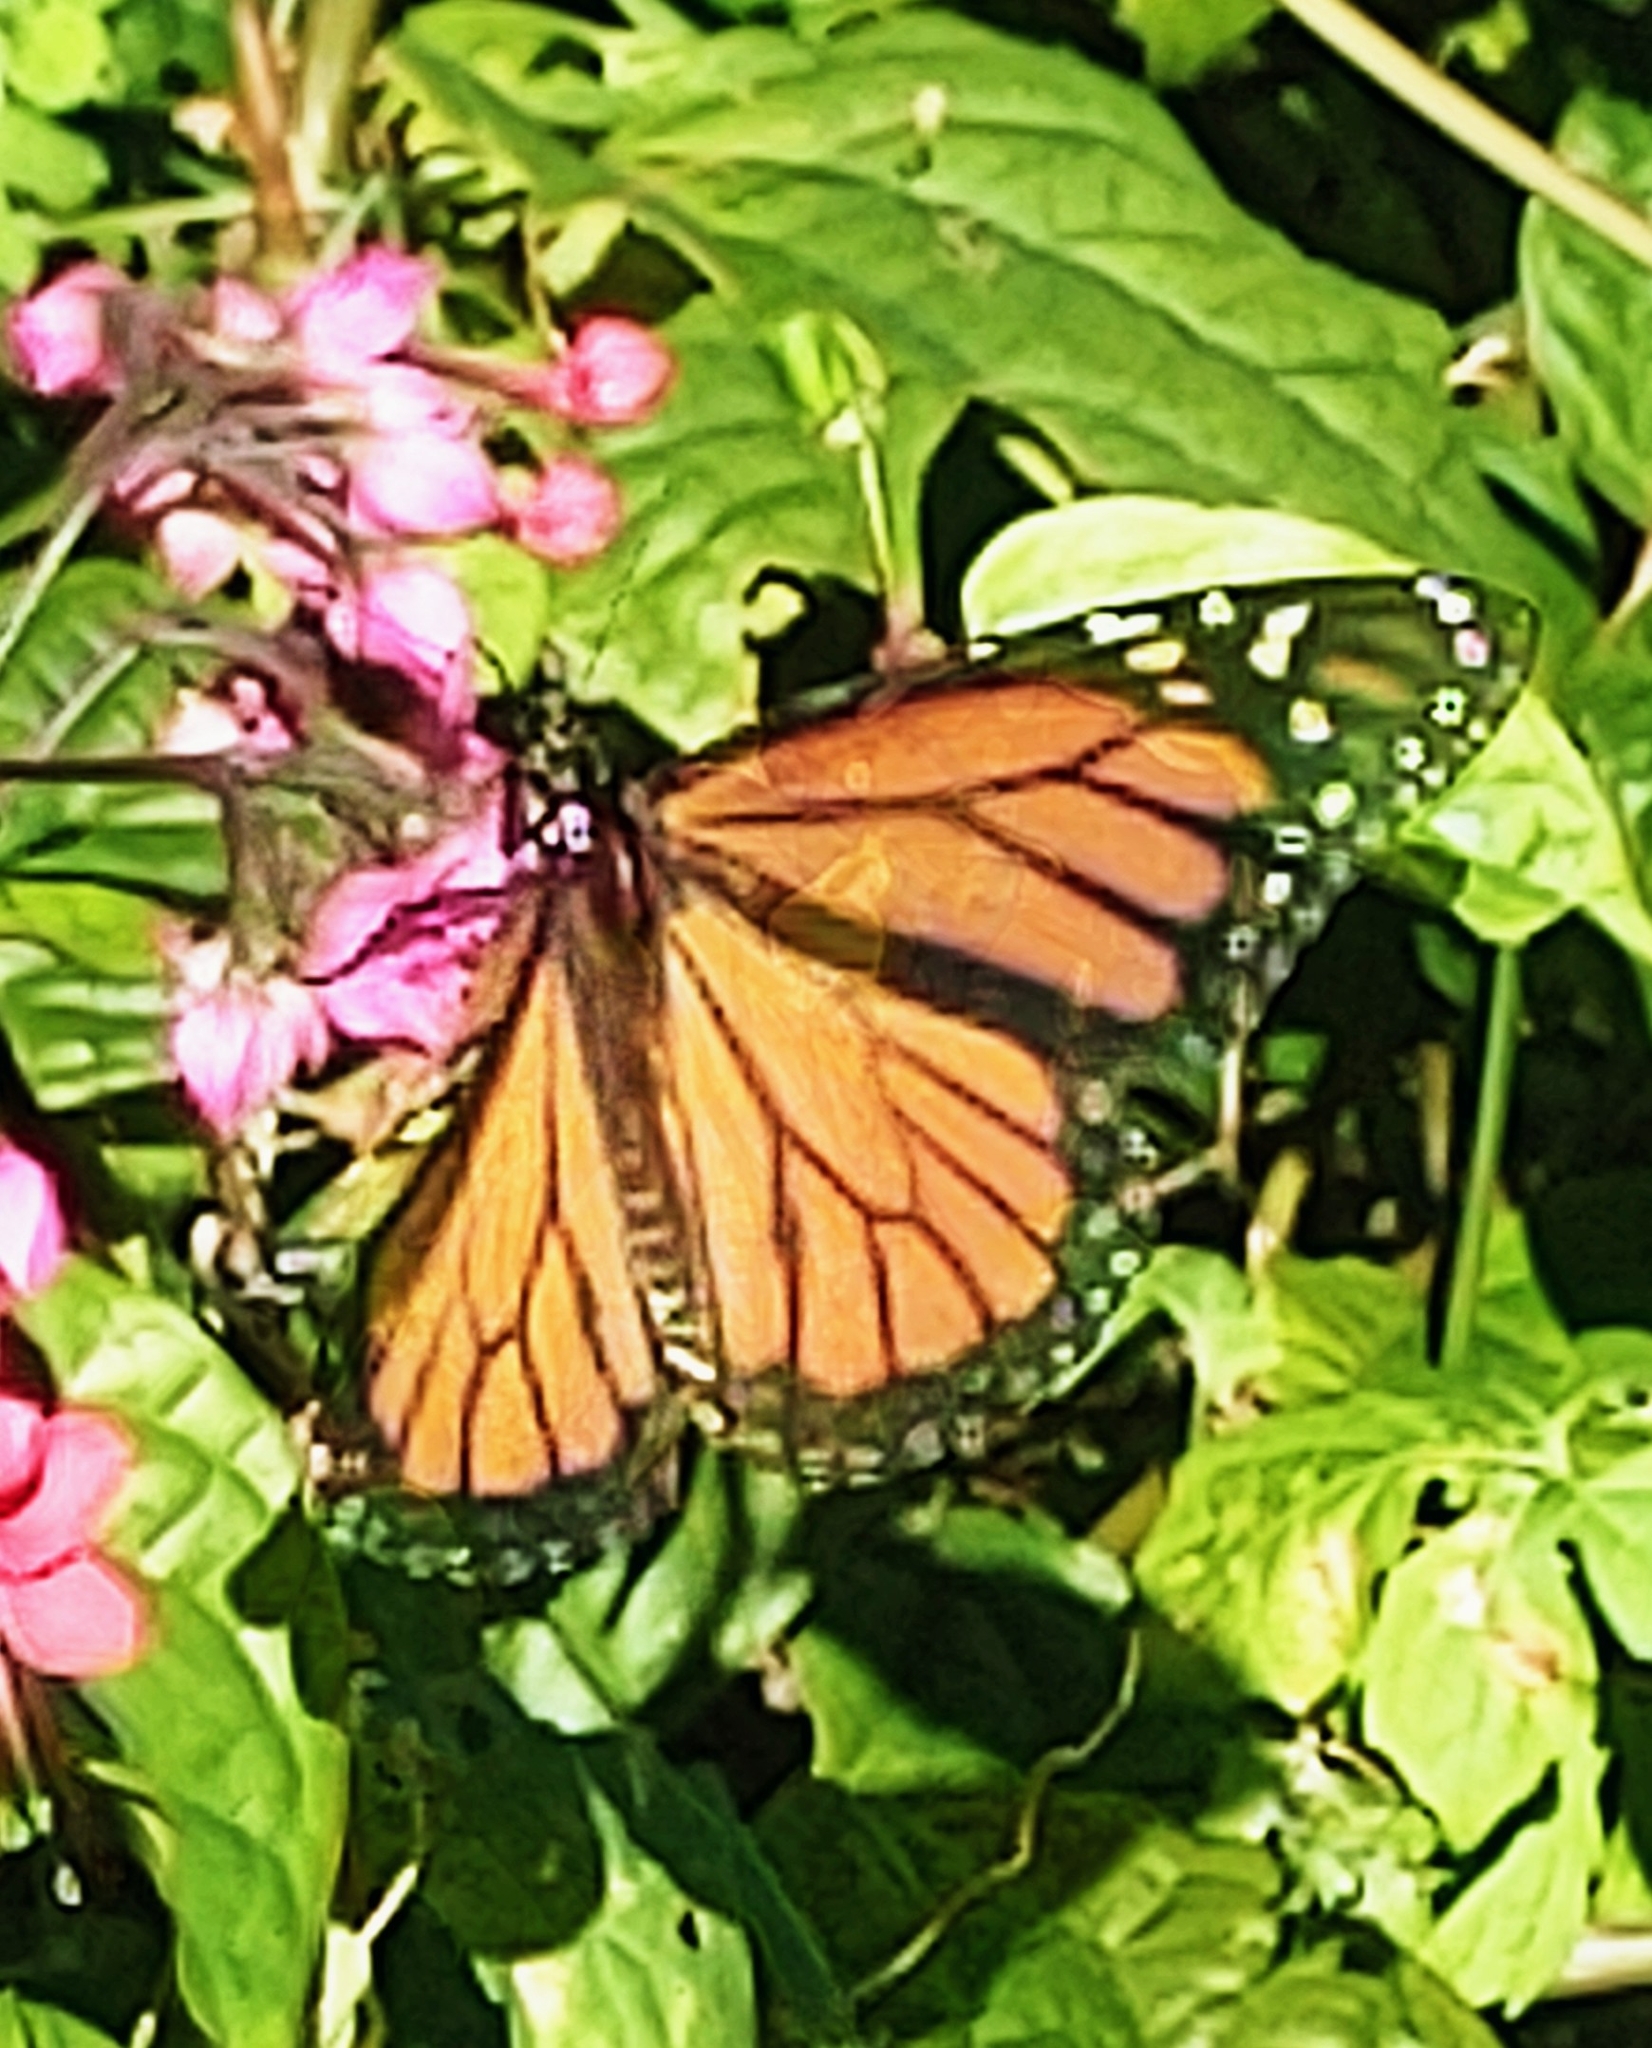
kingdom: Animalia
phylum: Arthropoda
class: Insecta
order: Lepidoptera
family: Nymphalidae
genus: Danaus
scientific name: Danaus plexippus
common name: Monarch
